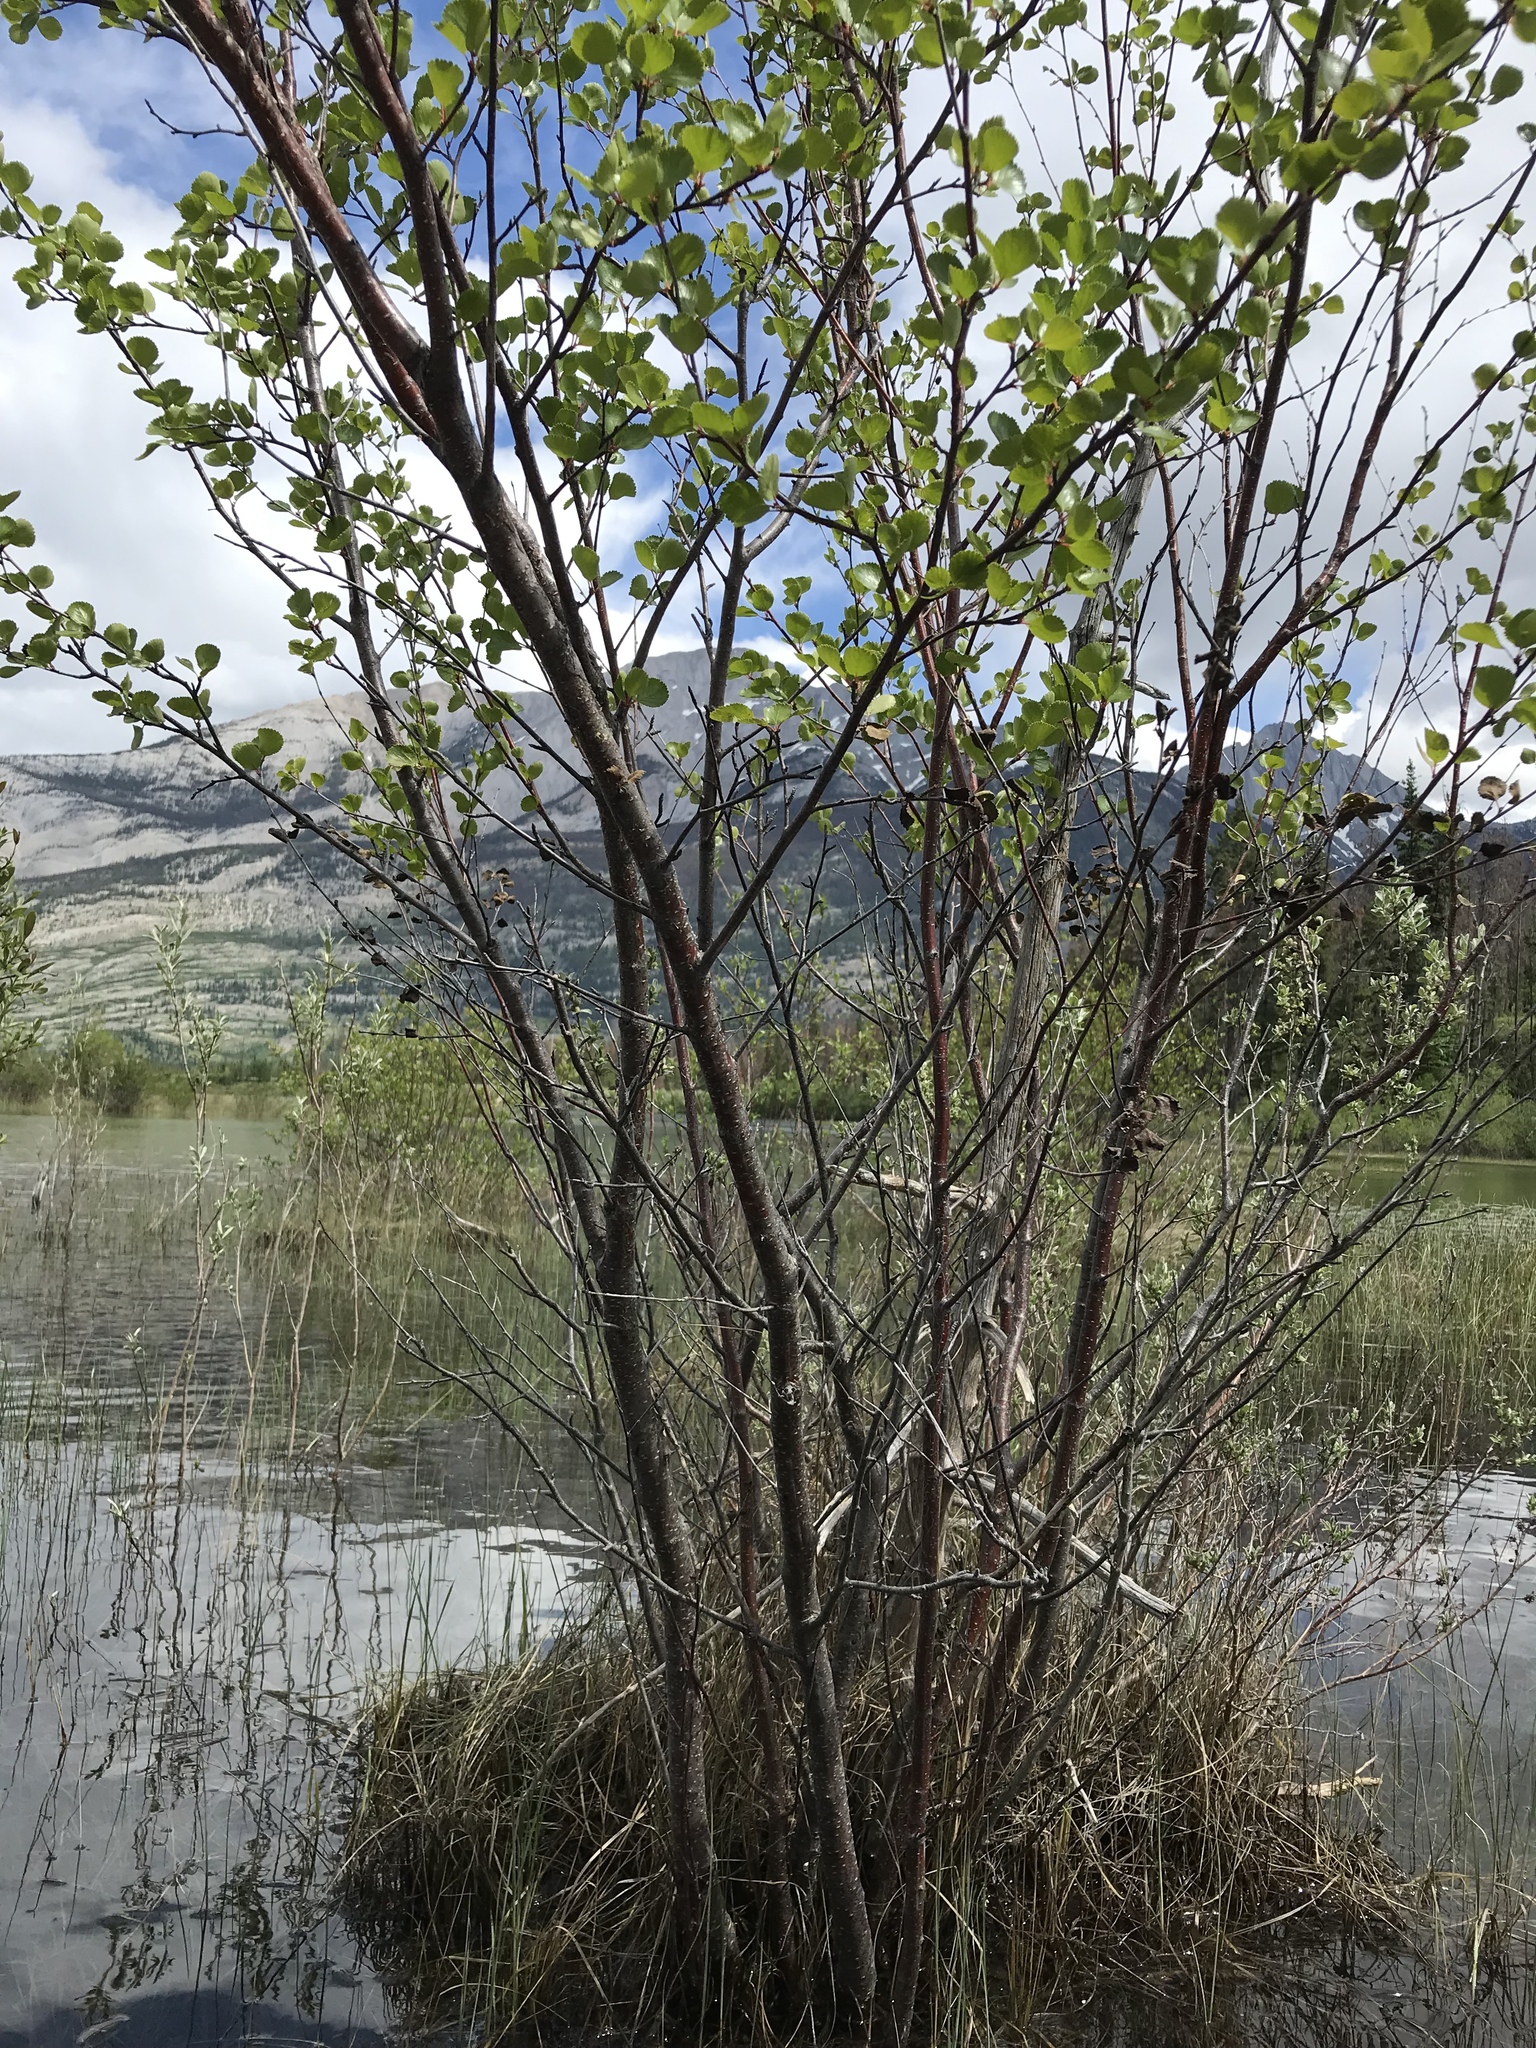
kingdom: Plantae
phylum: Tracheophyta
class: Magnoliopsida
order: Fagales
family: Betulaceae
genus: Betula
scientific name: Betula pumila
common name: Bog birch
